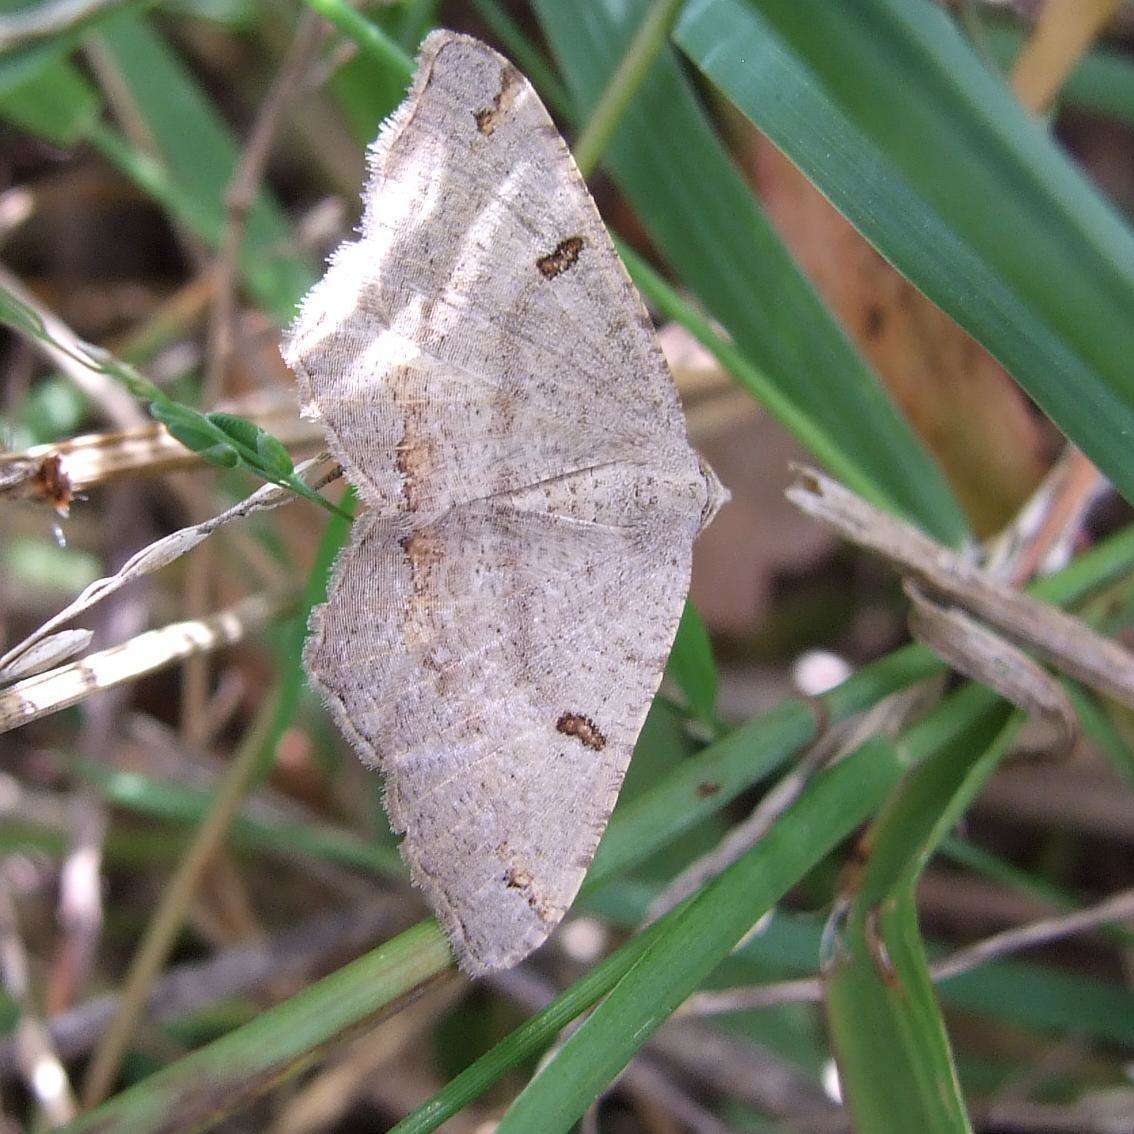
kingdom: Animalia
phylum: Arthropoda
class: Insecta
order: Lepidoptera
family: Geometridae
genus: Dissomorphia
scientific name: Dissomorphia australiaria
